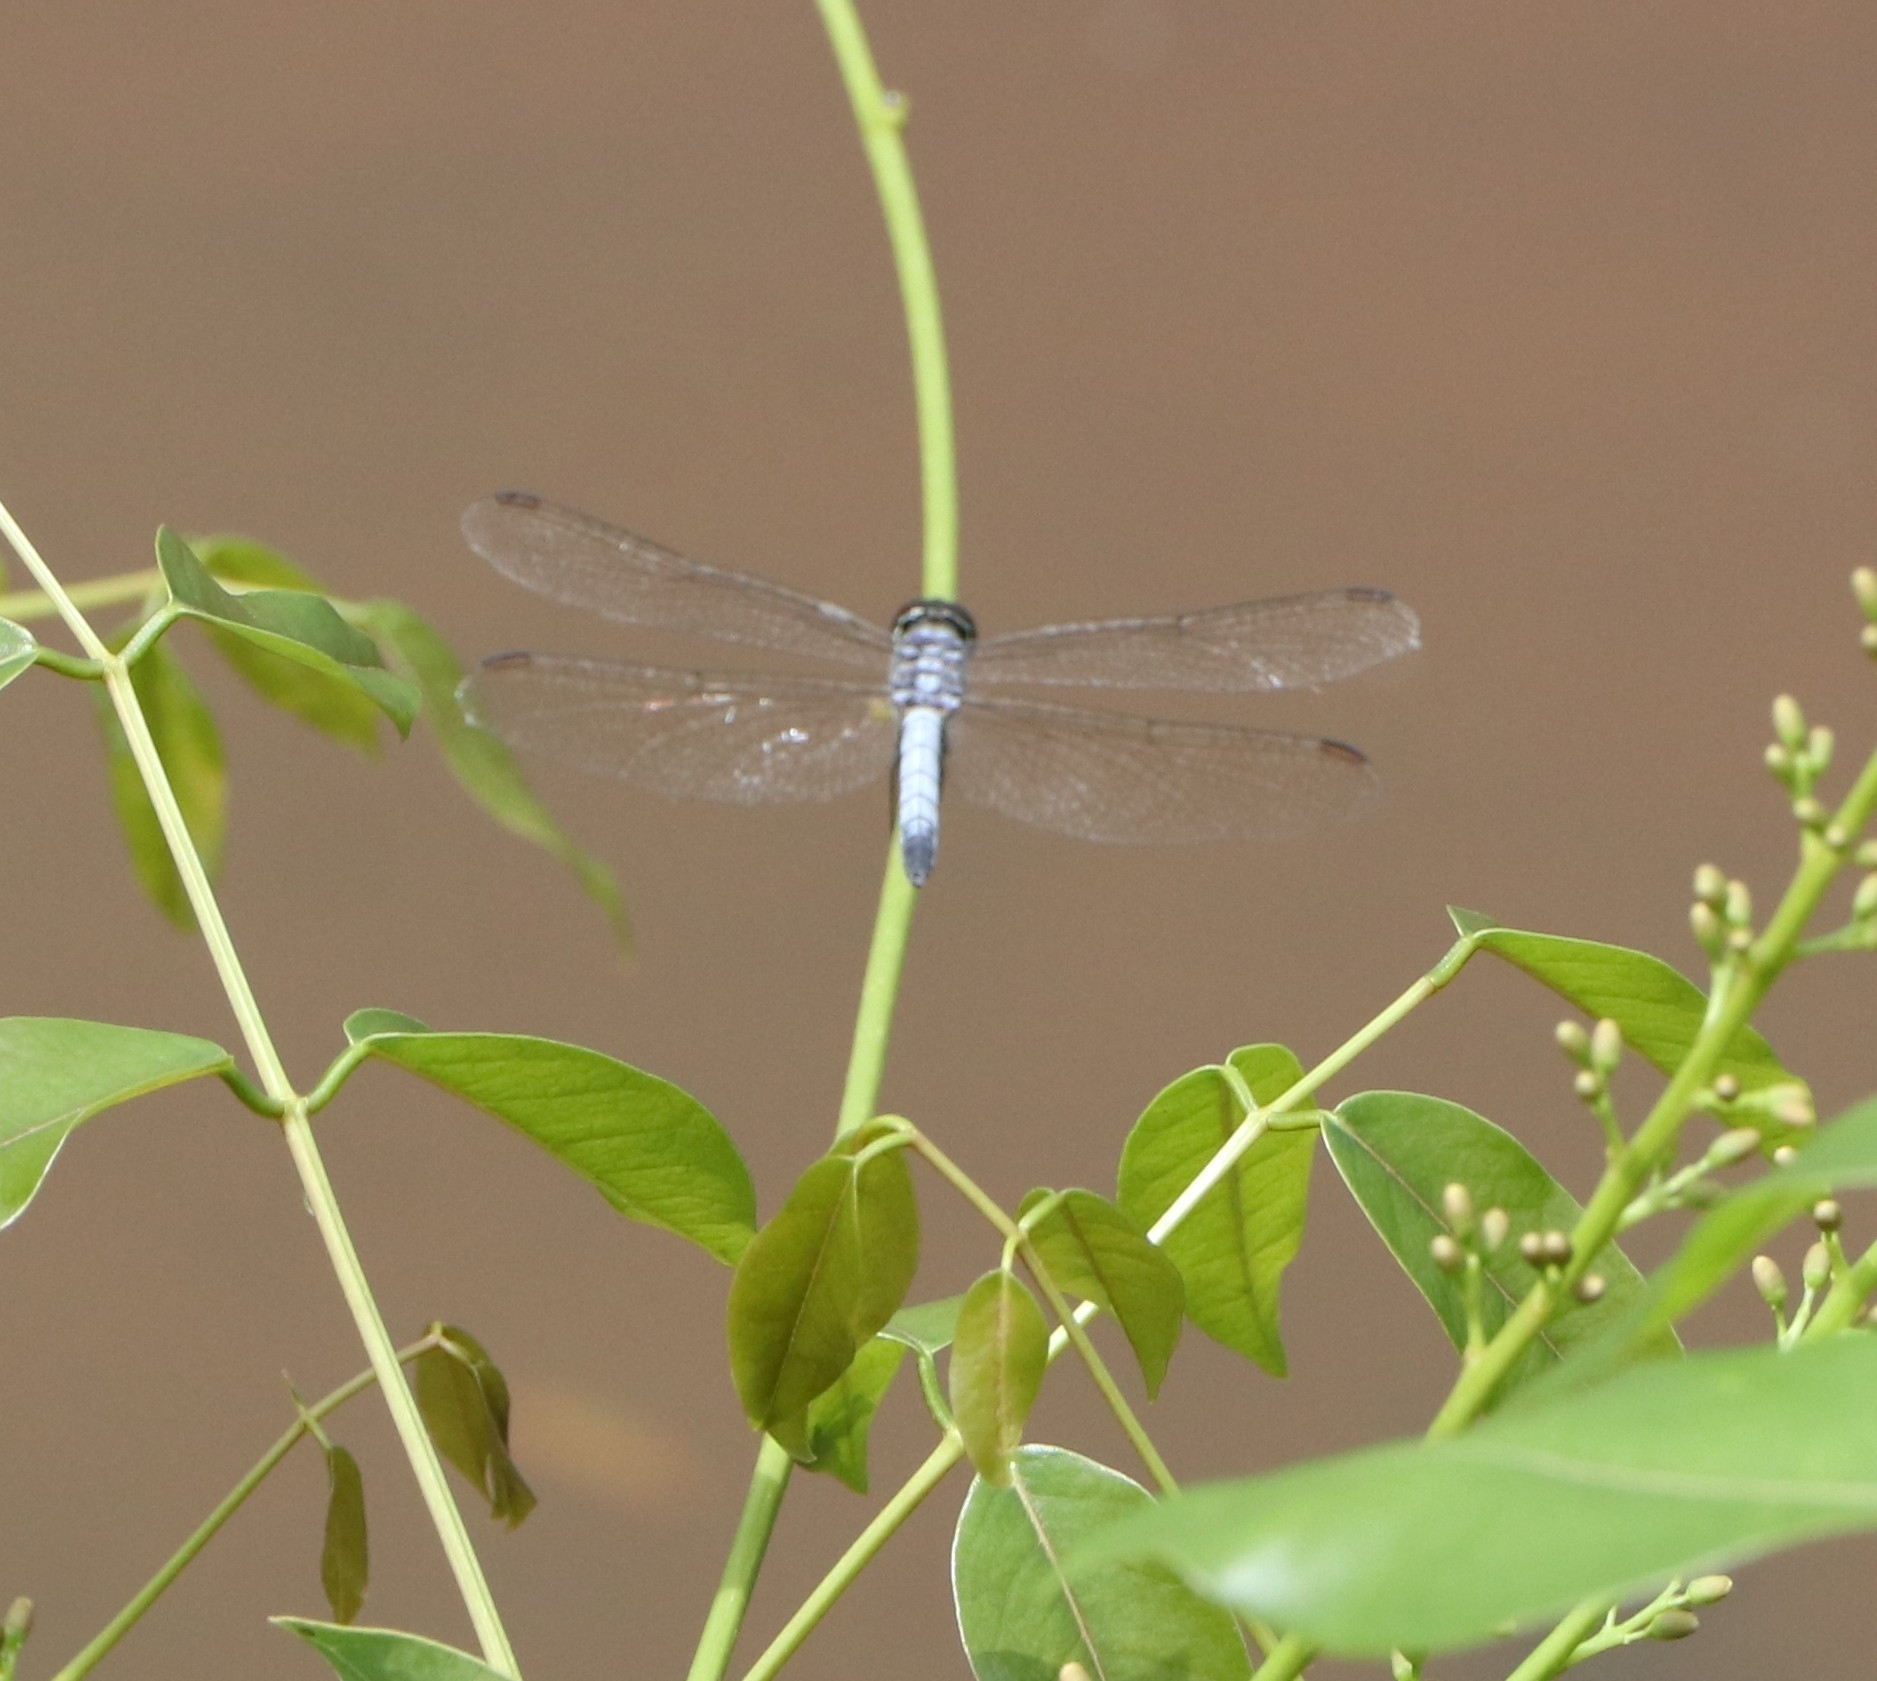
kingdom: Animalia
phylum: Arthropoda
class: Insecta
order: Odonata
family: Libellulidae
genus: Brachydiplax
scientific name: Brachydiplax sobrina
